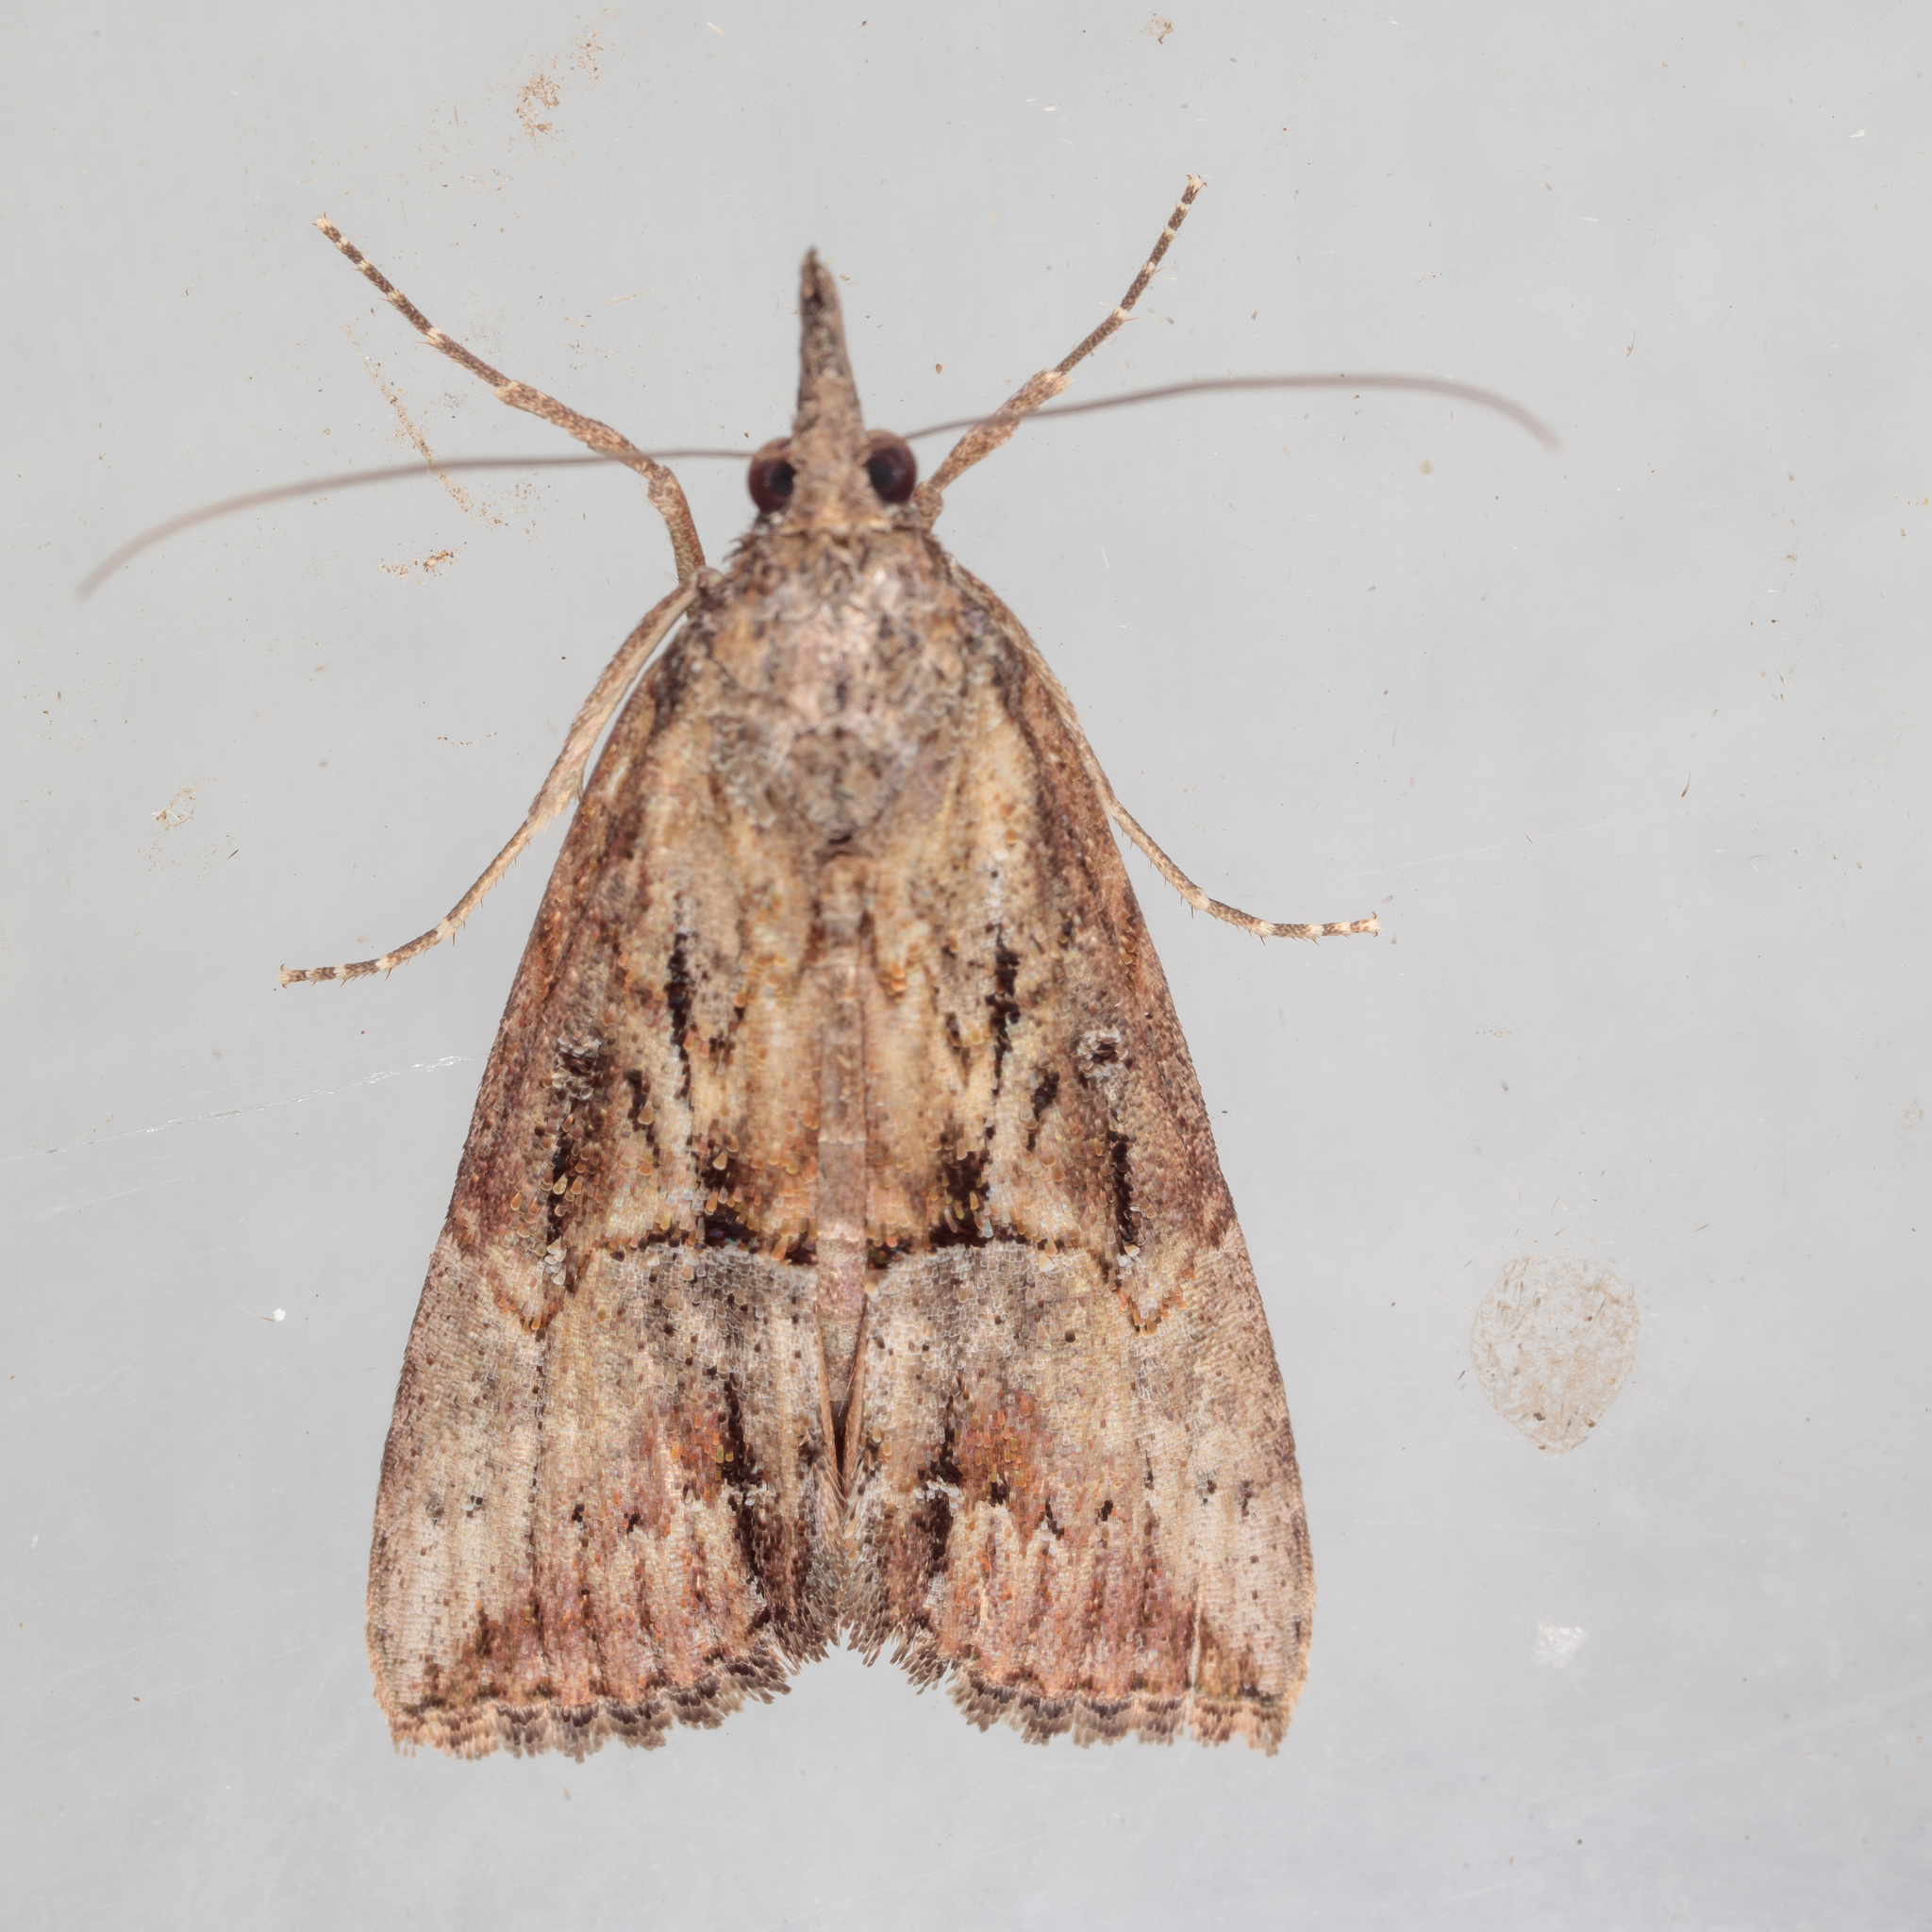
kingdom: Animalia
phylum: Arthropoda
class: Insecta
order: Lepidoptera
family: Erebidae
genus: Hypena
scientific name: Hypena scabra
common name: Green cloverworm
